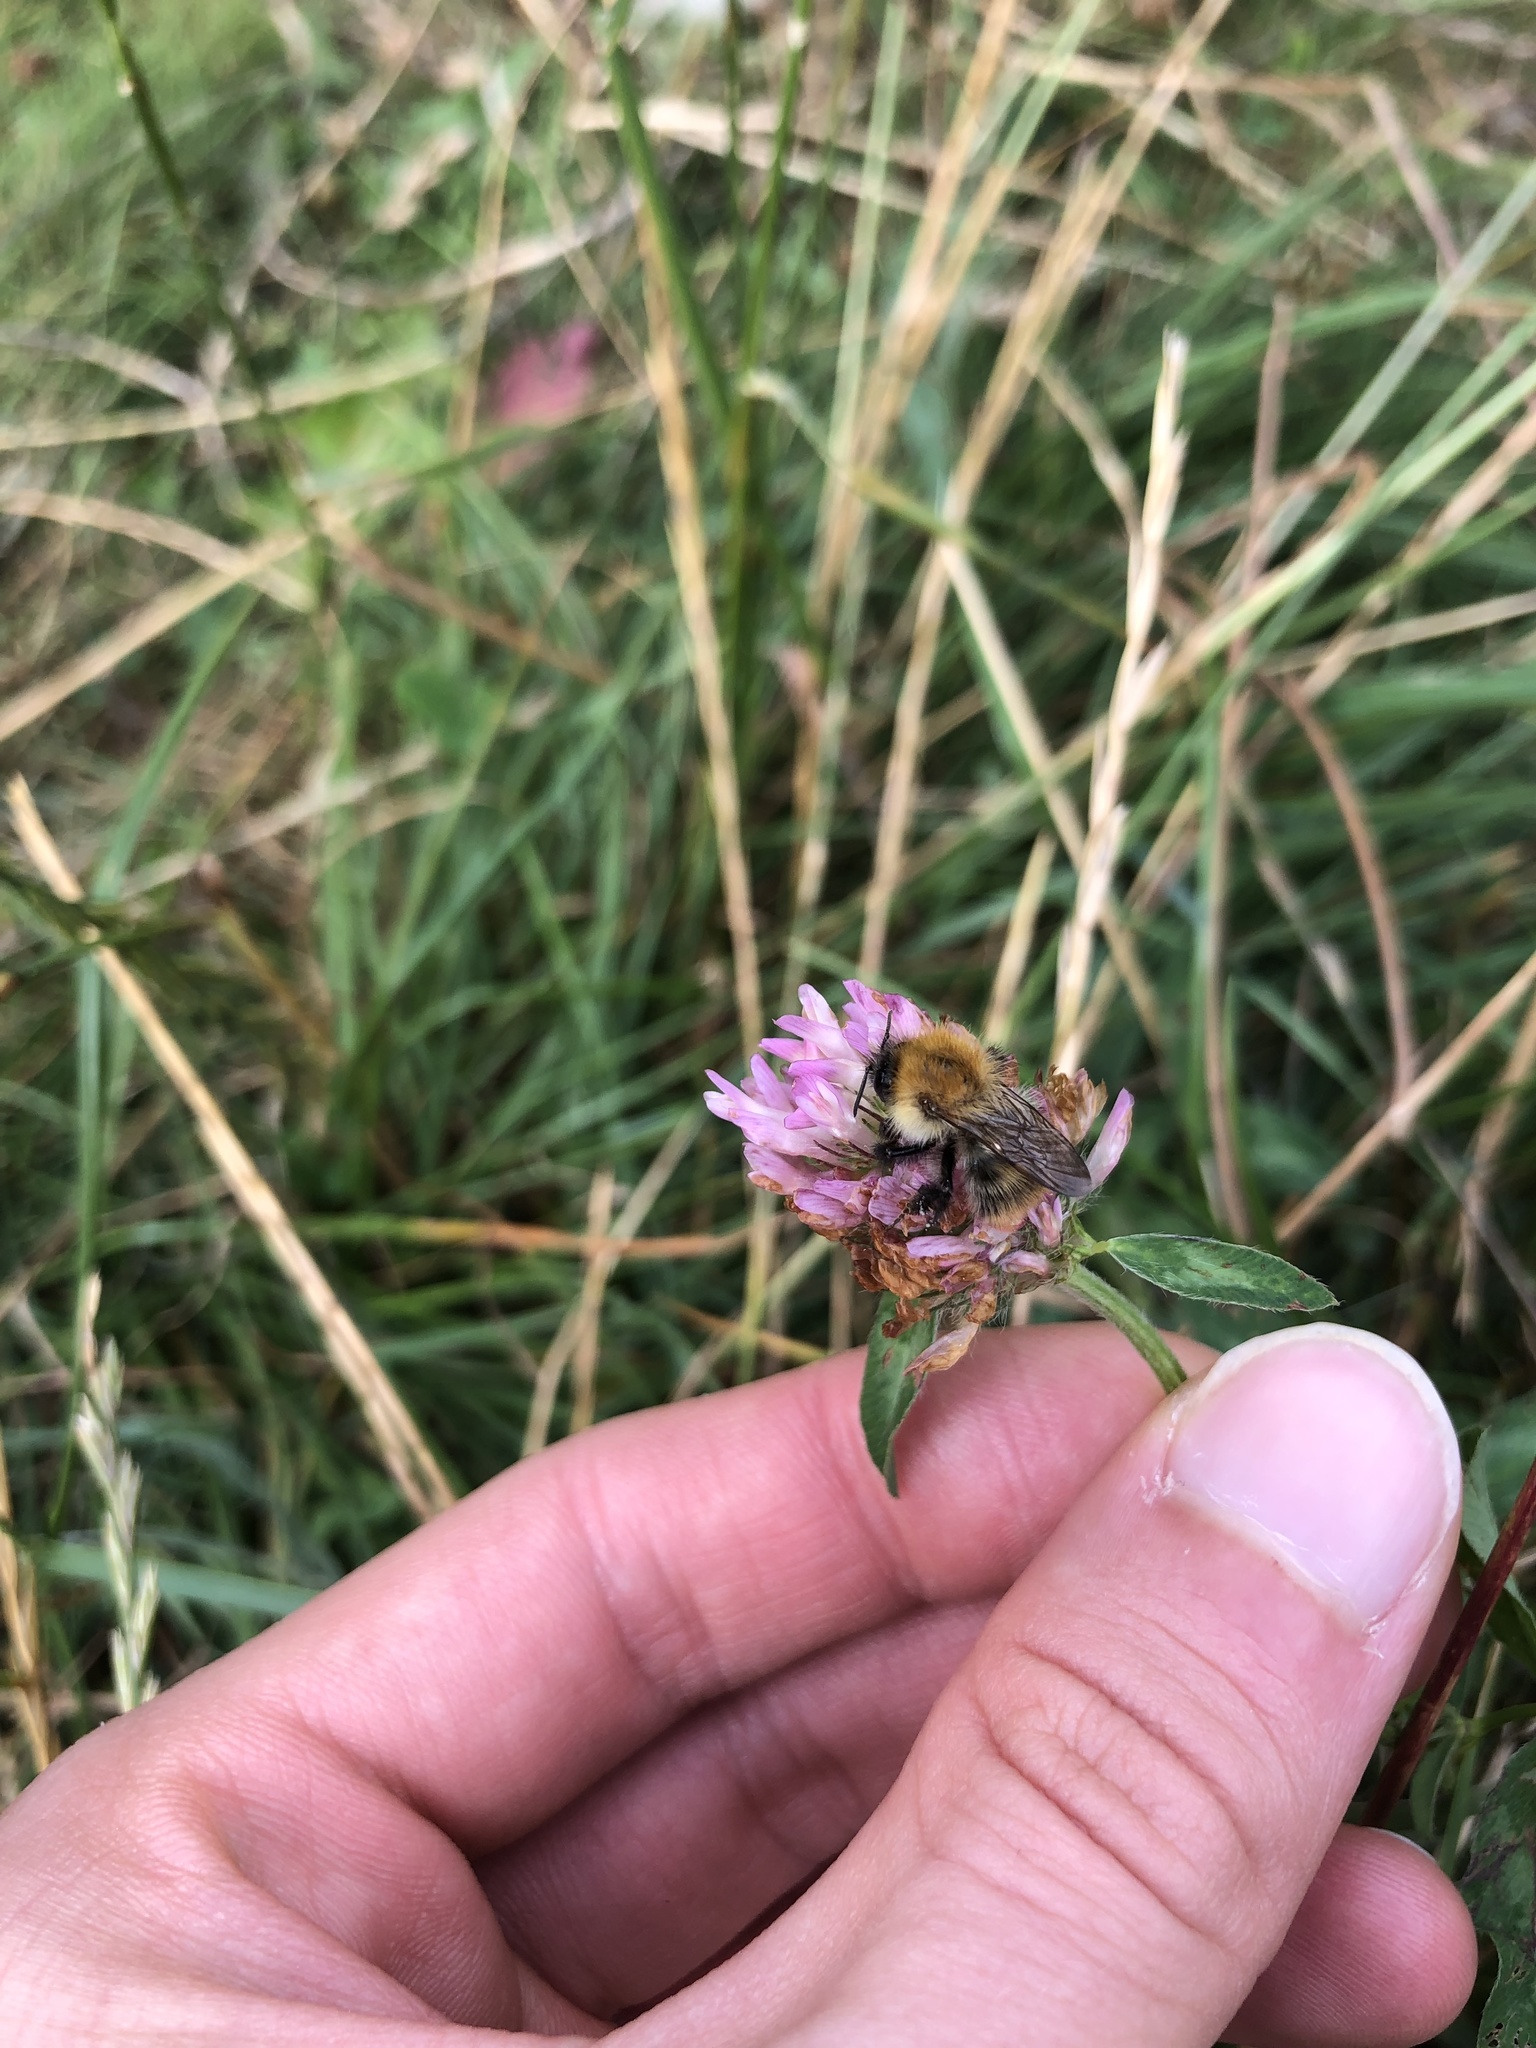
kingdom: Animalia
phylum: Arthropoda
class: Insecta
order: Hymenoptera
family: Apidae
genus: Bombus
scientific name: Bombus pascuorum
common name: Common carder bee
